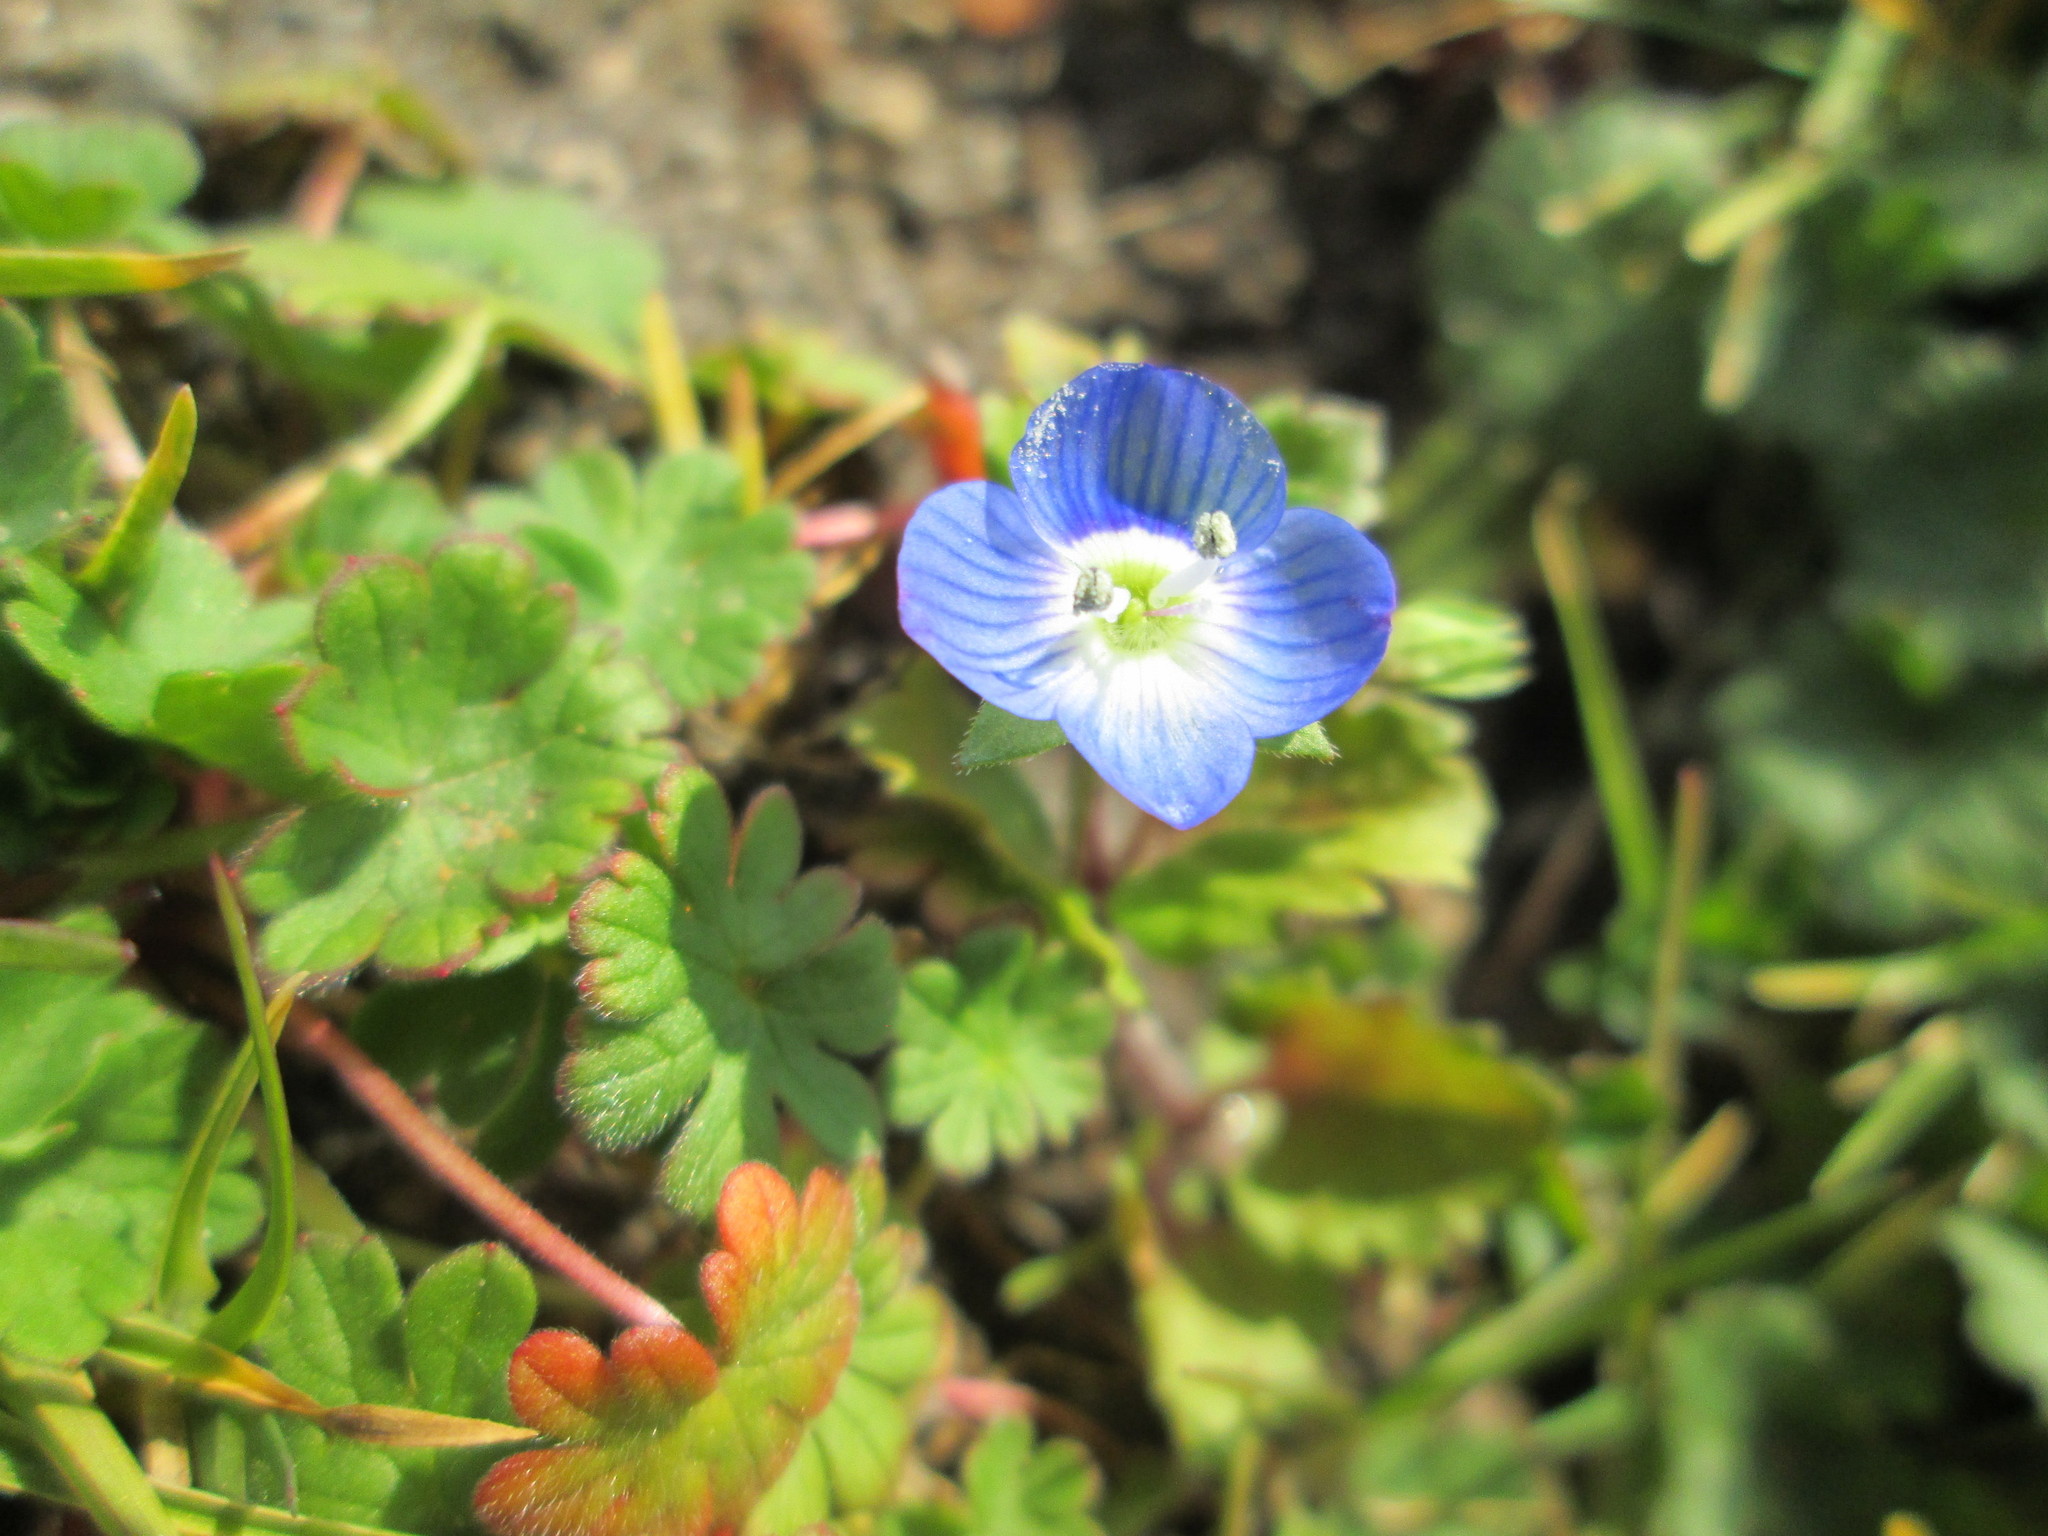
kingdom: Plantae
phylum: Tracheophyta
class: Magnoliopsida
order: Lamiales
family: Plantaginaceae
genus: Veronica
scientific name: Veronica persica
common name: Common field-speedwell
